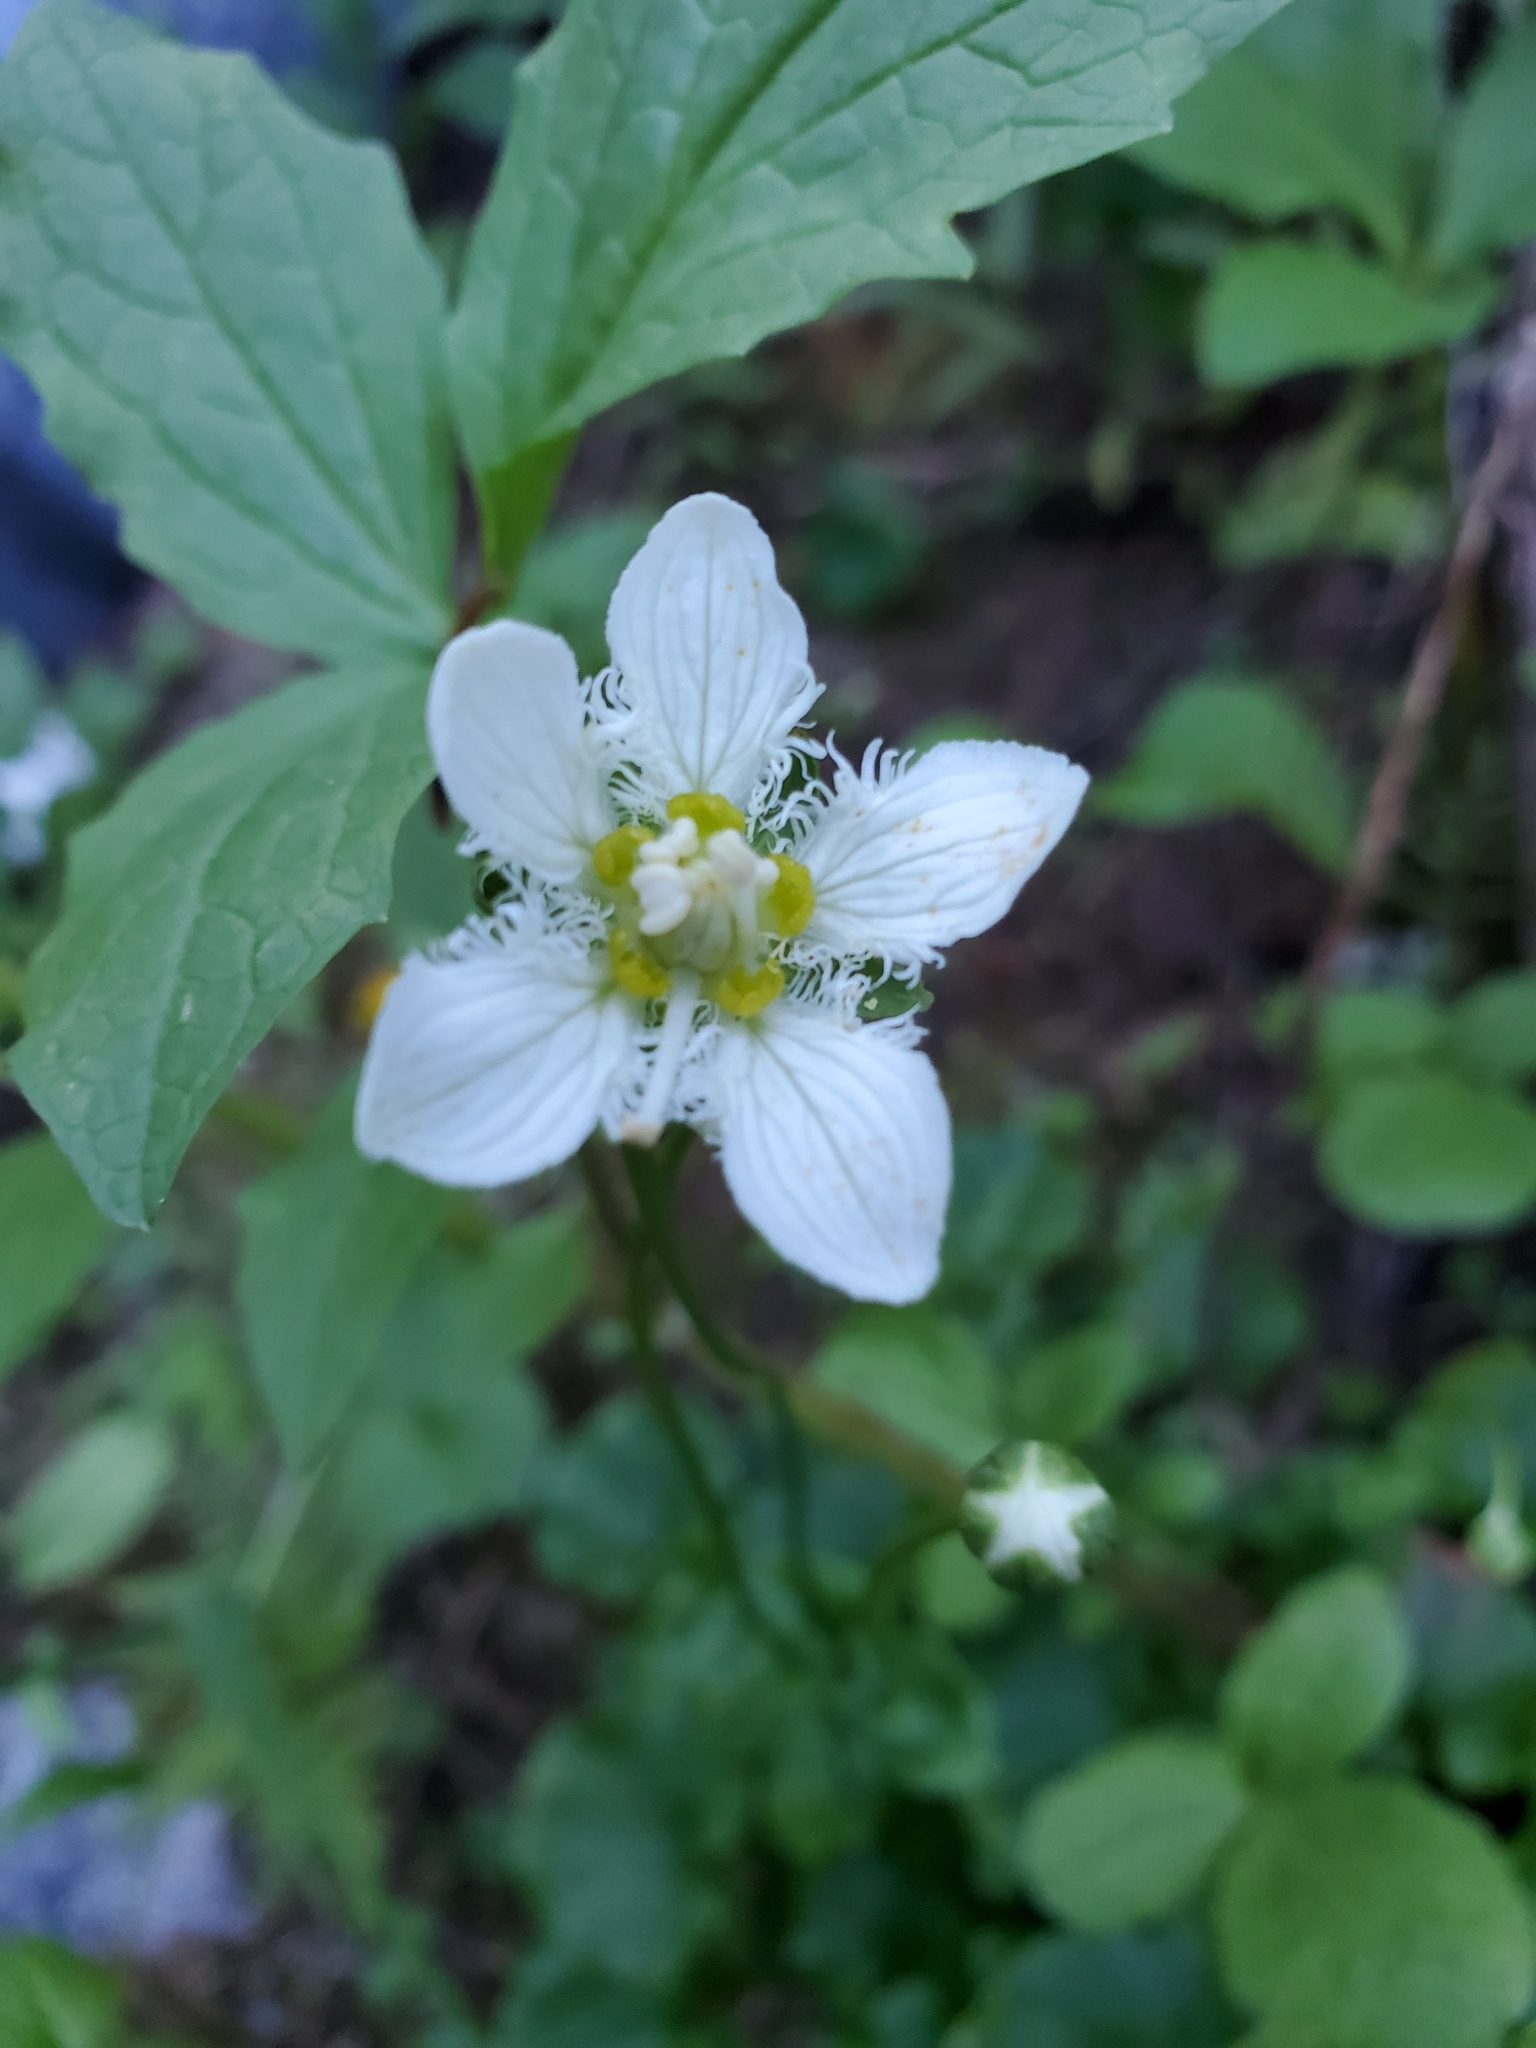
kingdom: Plantae
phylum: Tracheophyta
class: Magnoliopsida
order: Celastrales
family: Parnassiaceae
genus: Parnassia
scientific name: Parnassia fimbriata
